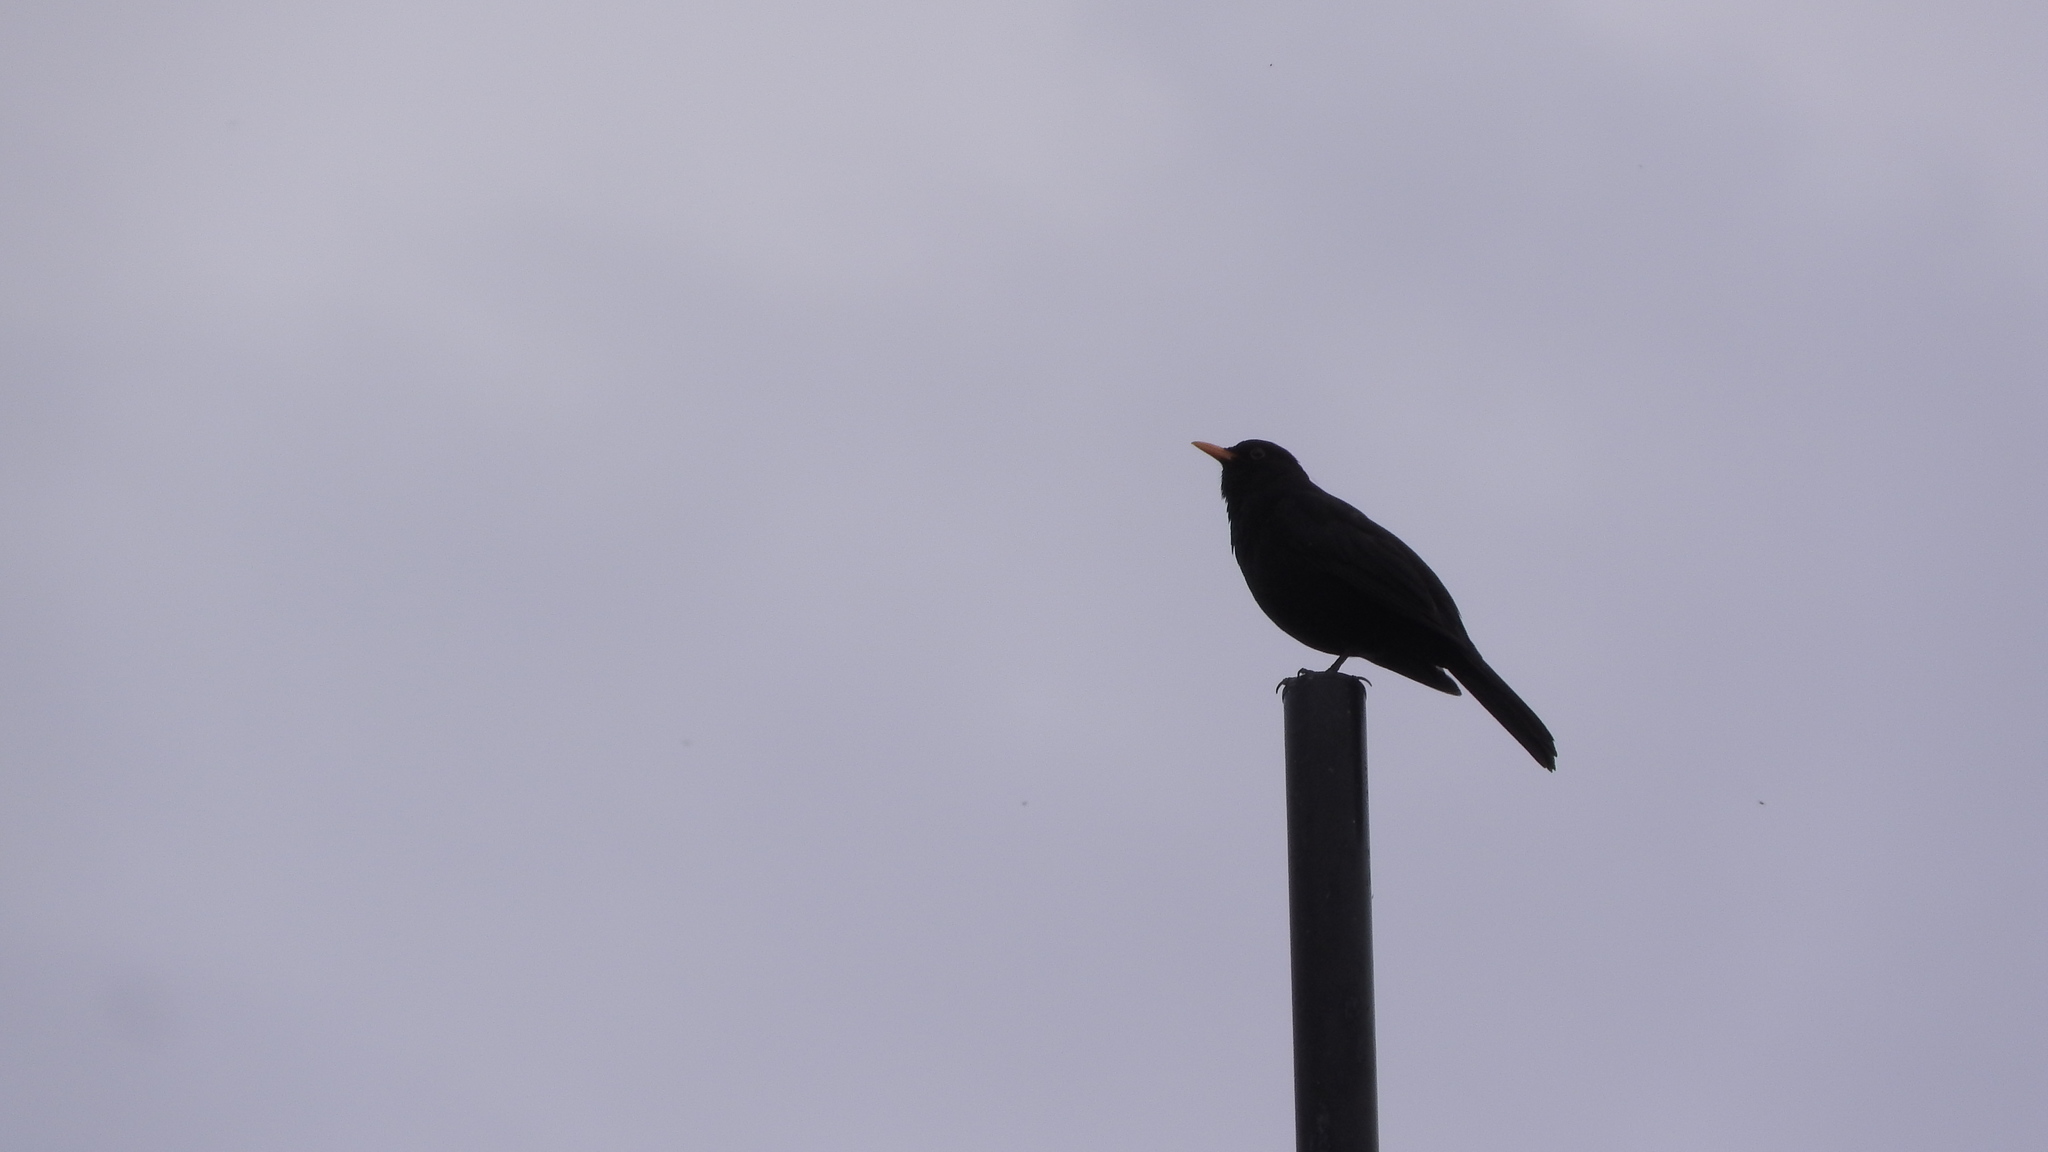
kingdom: Animalia
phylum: Chordata
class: Aves
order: Passeriformes
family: Turdidae
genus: Turdus
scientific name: Turdus merula
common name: Common blackbird
